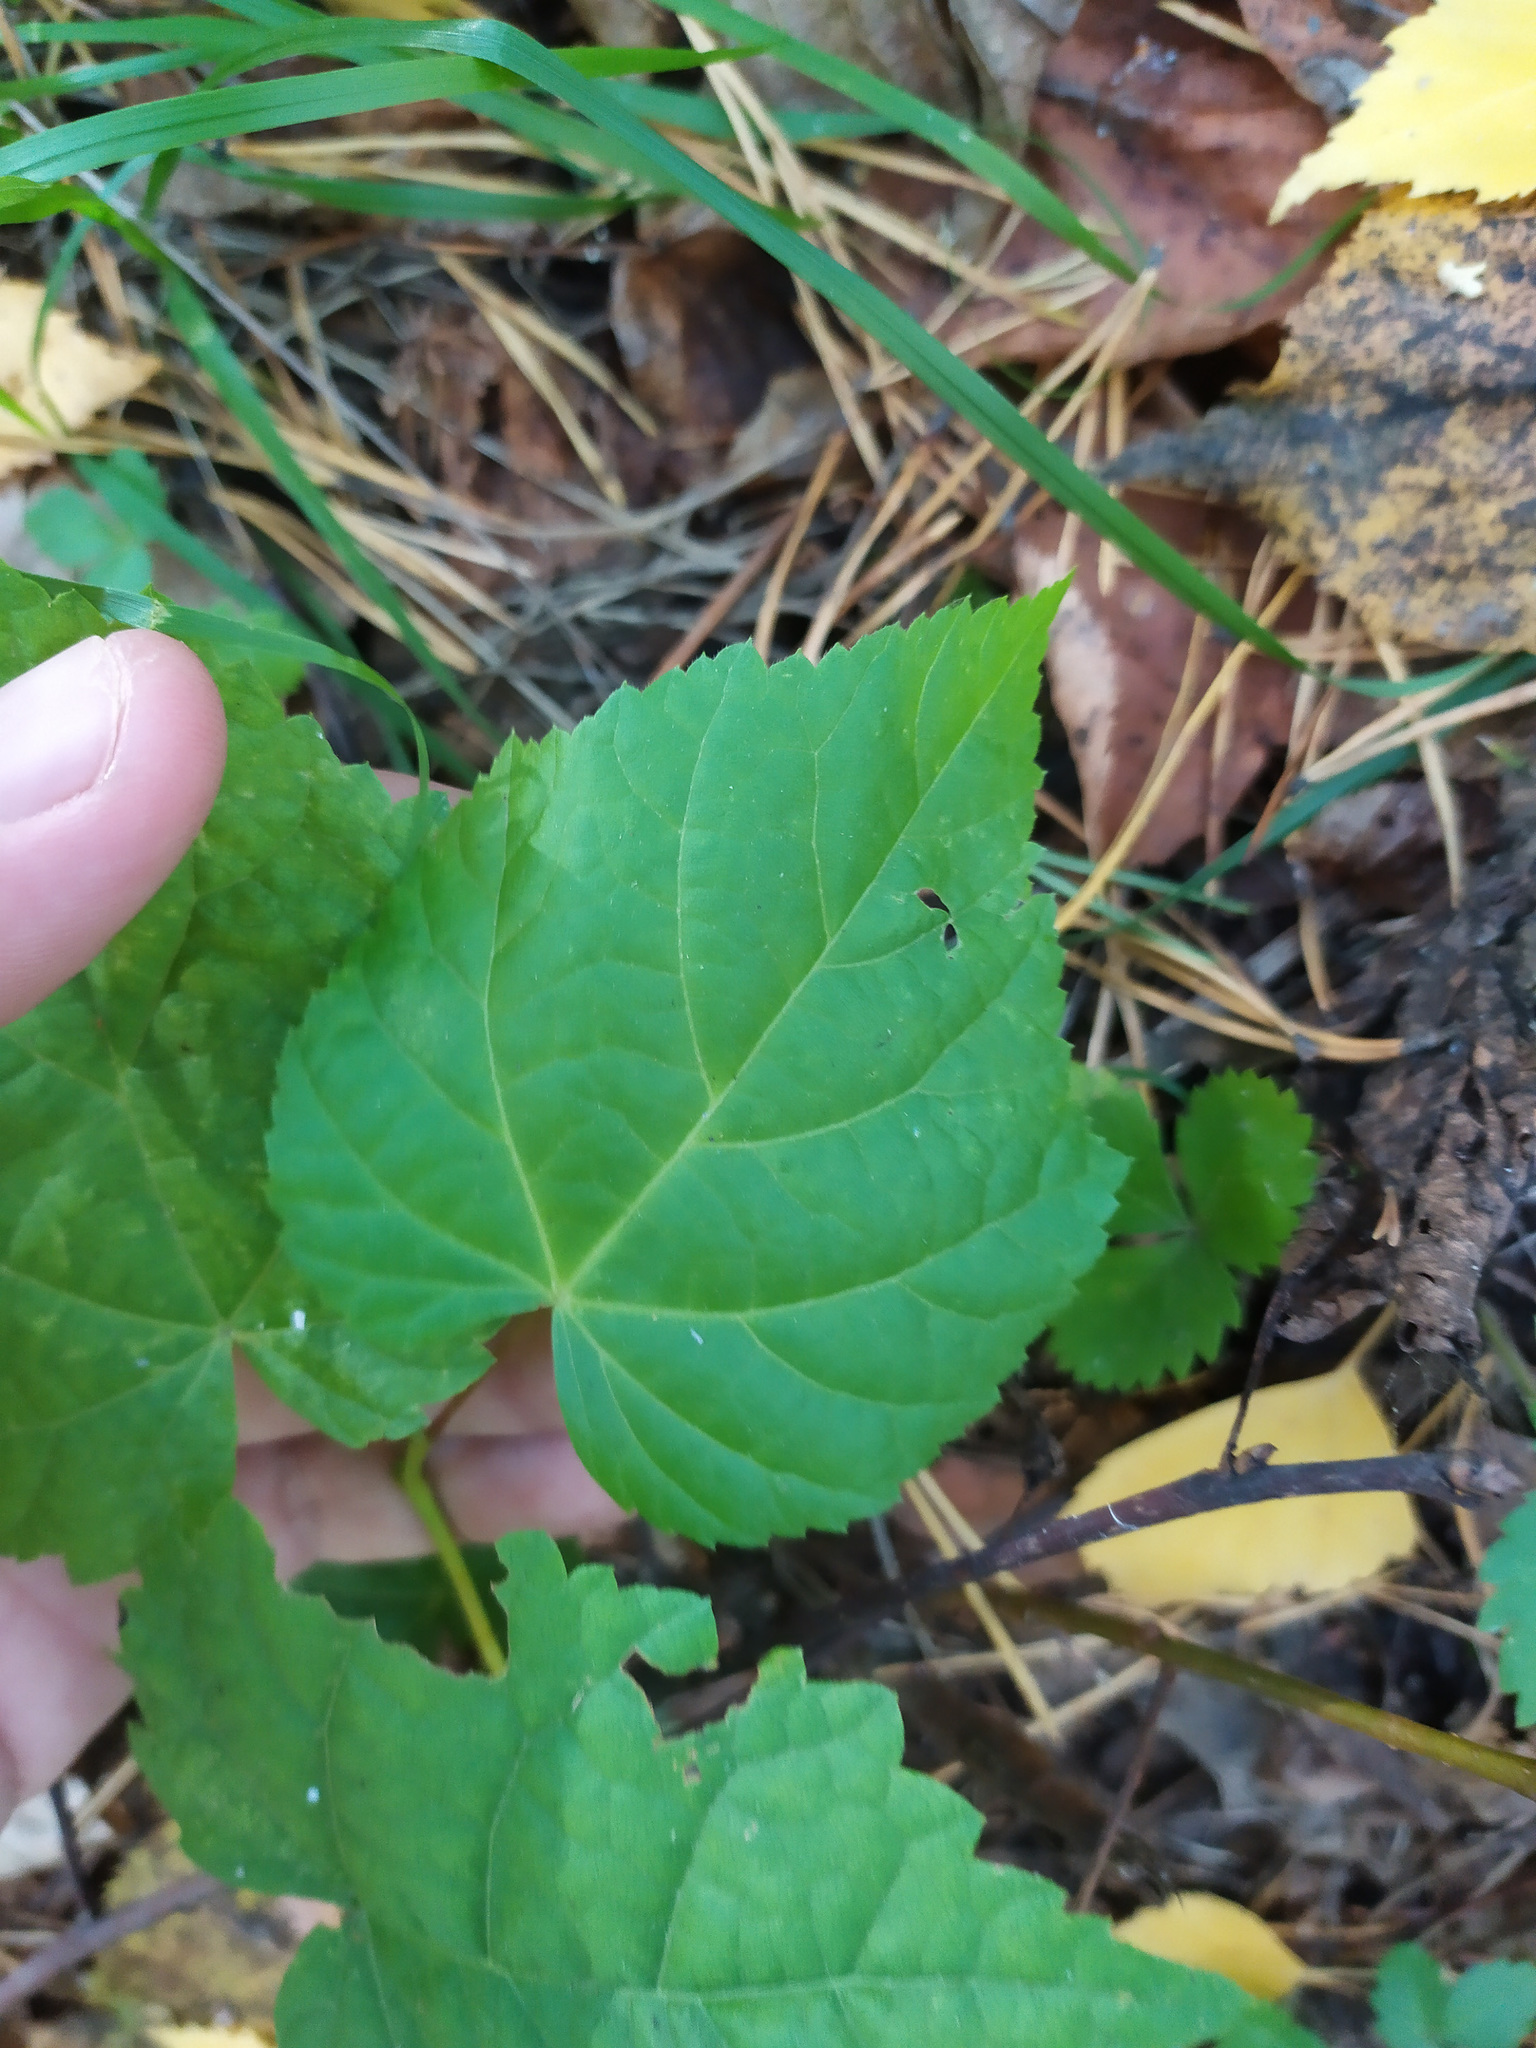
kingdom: Plantae
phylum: Tracheophyta
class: Magnoliopsida
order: Malvales
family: Malvaceae
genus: Tilia
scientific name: Tilia cordata
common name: Small-leaved lime
